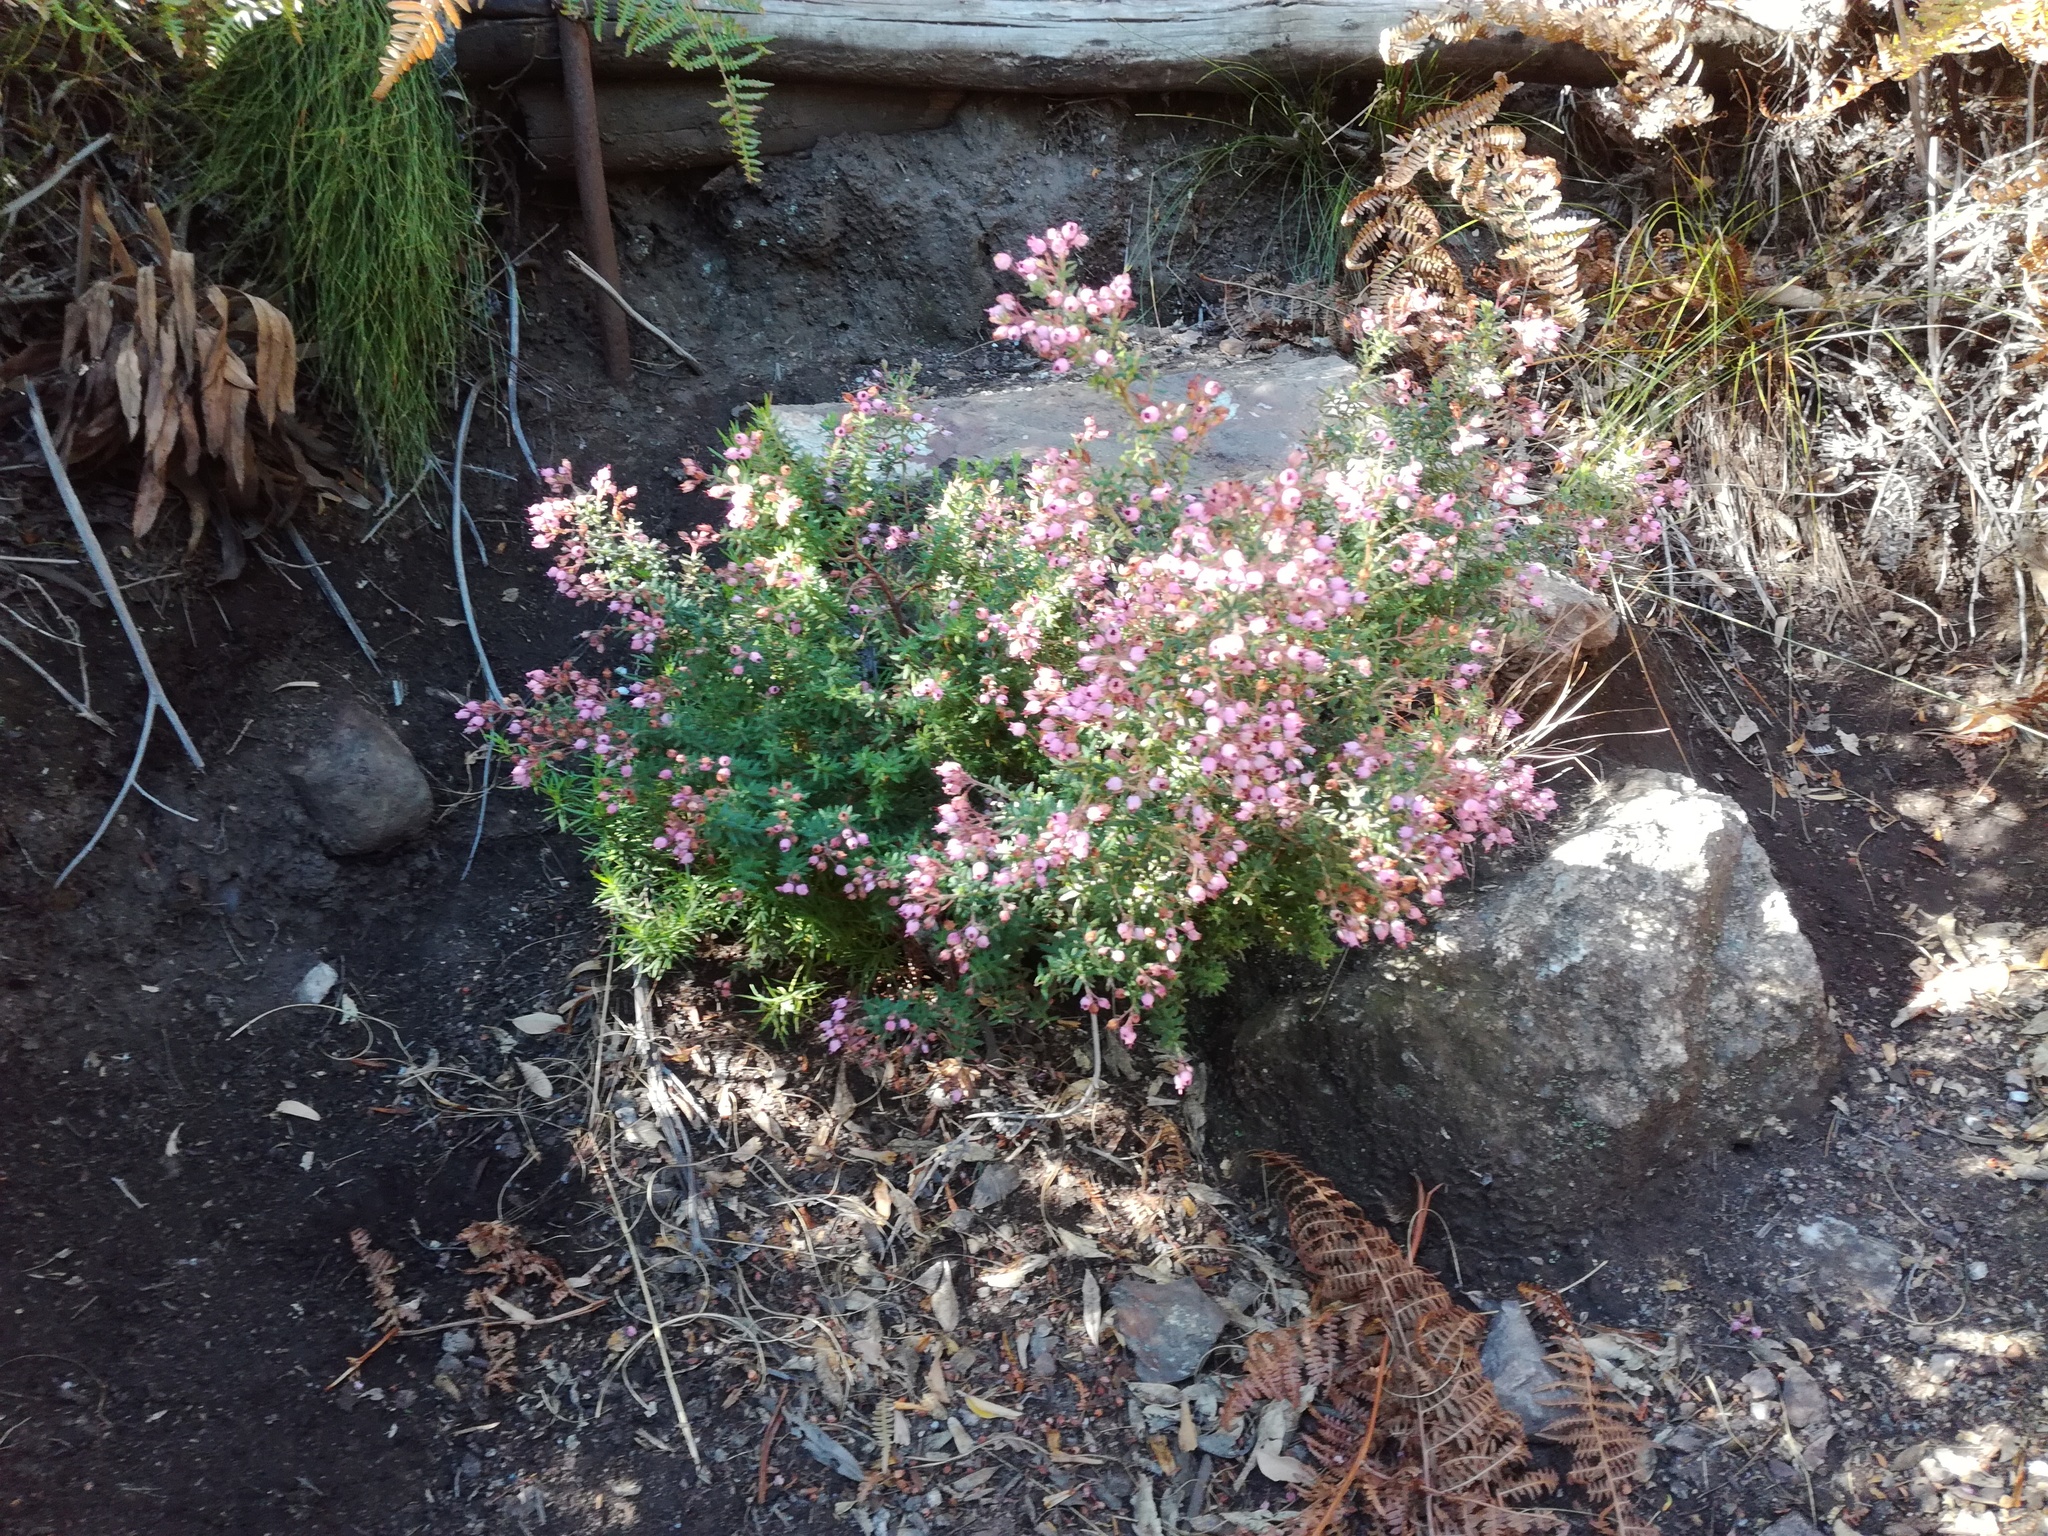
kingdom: Plantae
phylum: Tracheophyta
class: Magnoliopsida
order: Ericales
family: Ericaceae
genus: Erica
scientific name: Erica hirta
